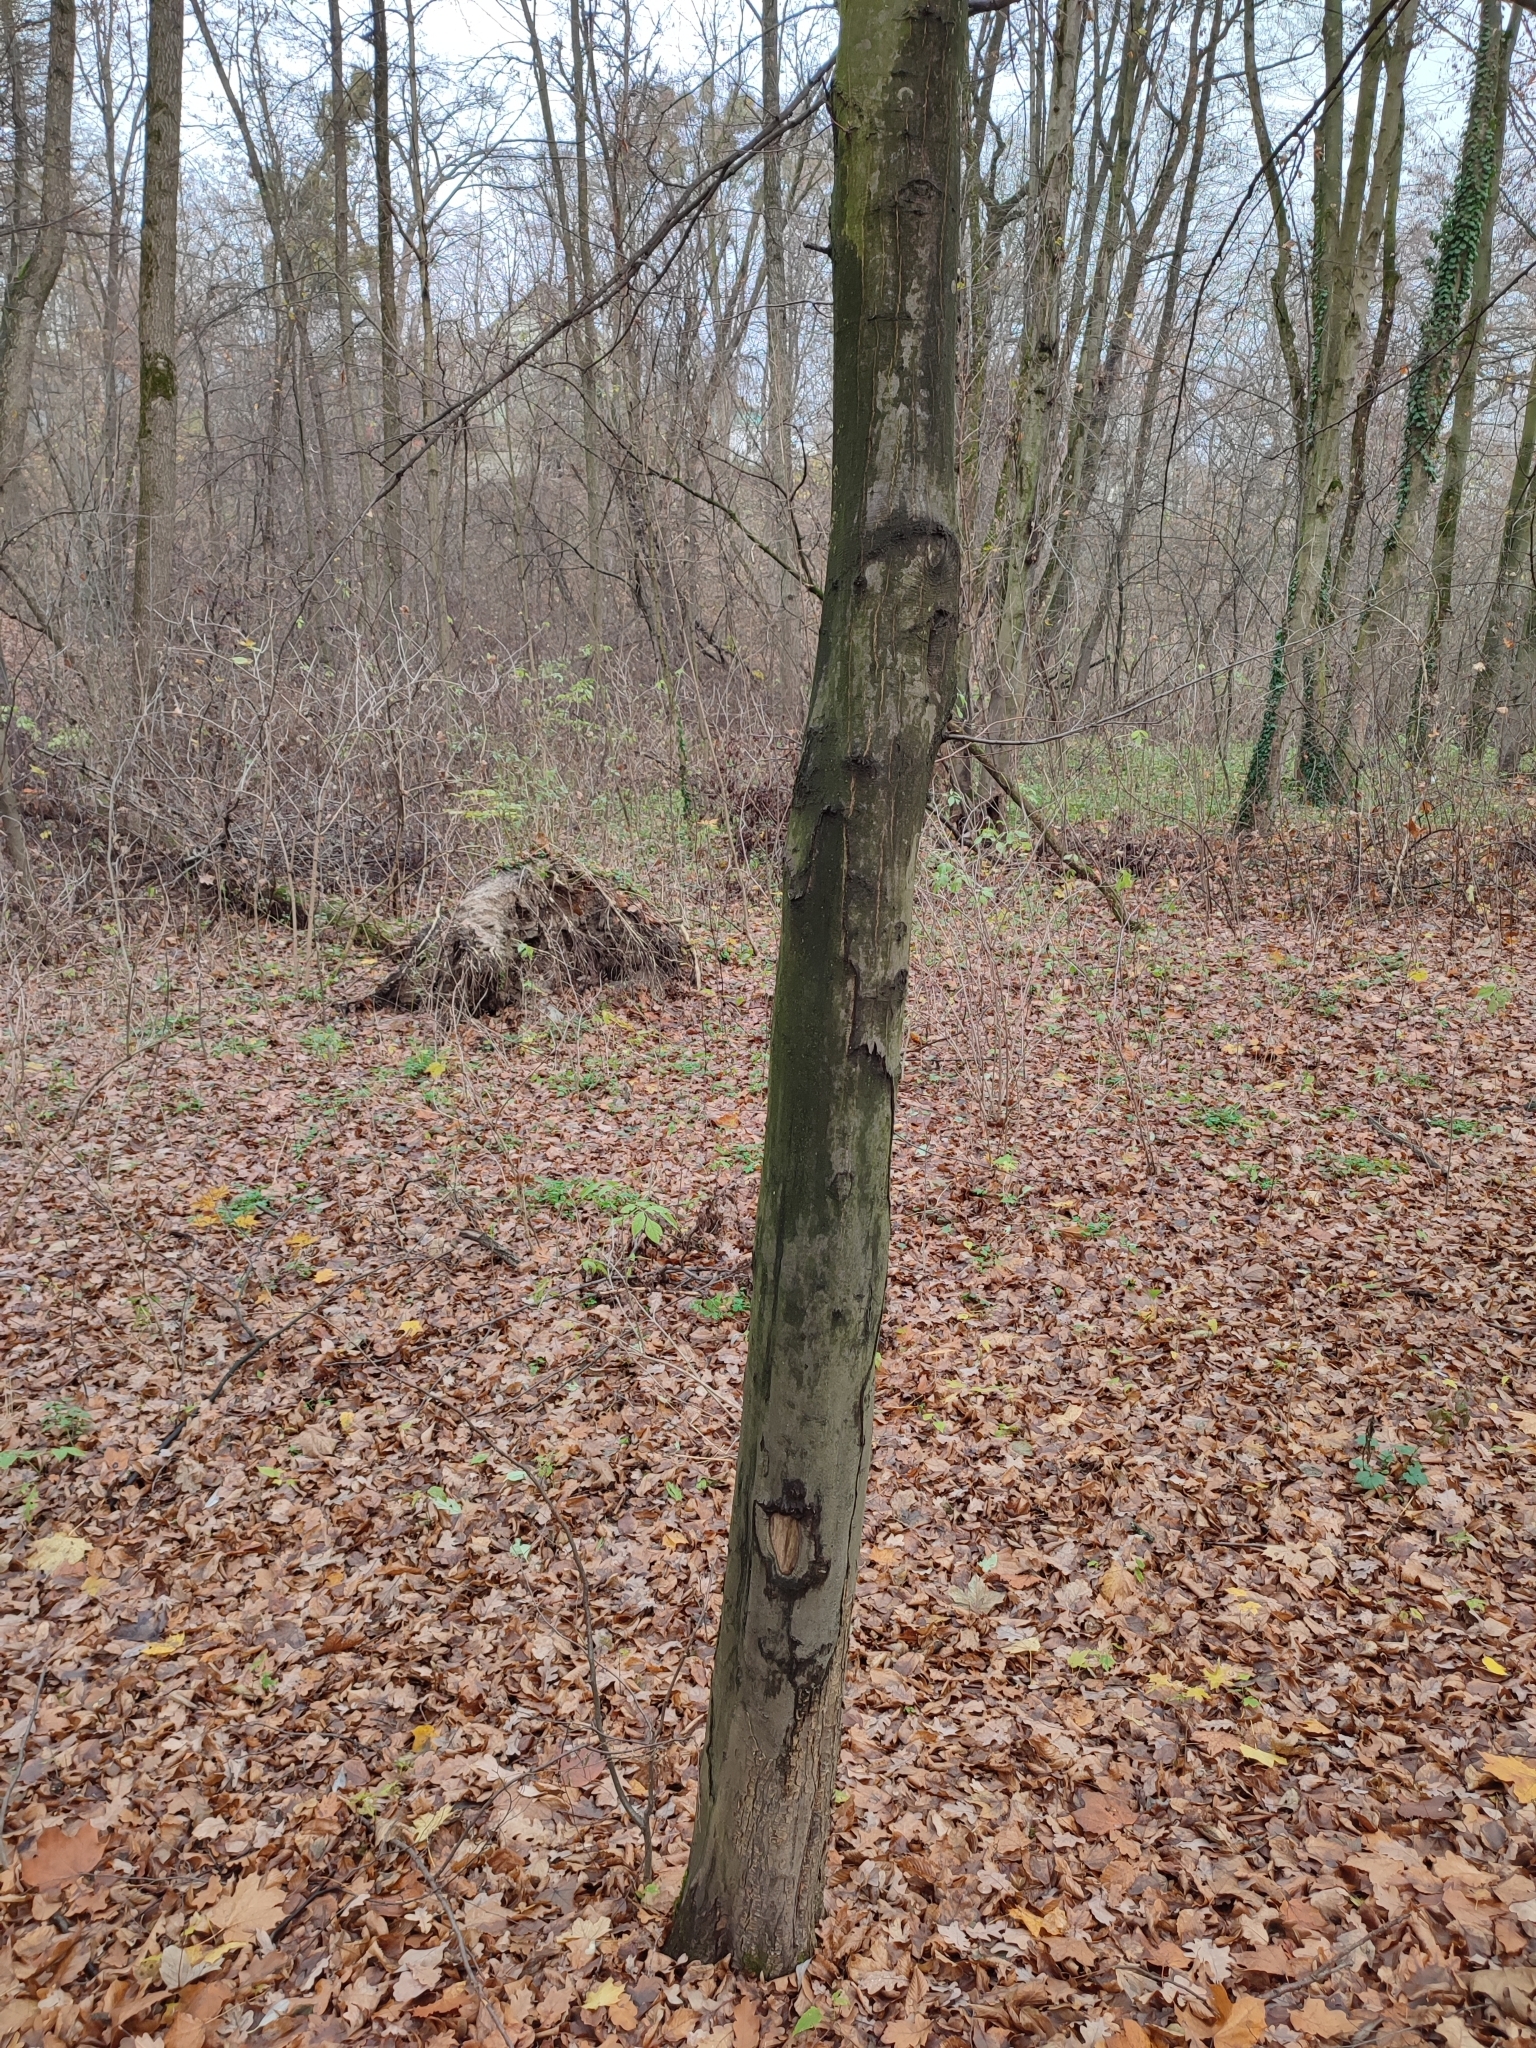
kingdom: Plantae
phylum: Tracheophyta
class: Magnoliopsida
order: Fagales
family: Betulaceae
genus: Carpinus
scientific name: Carpinus betulus
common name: Hornbeam
